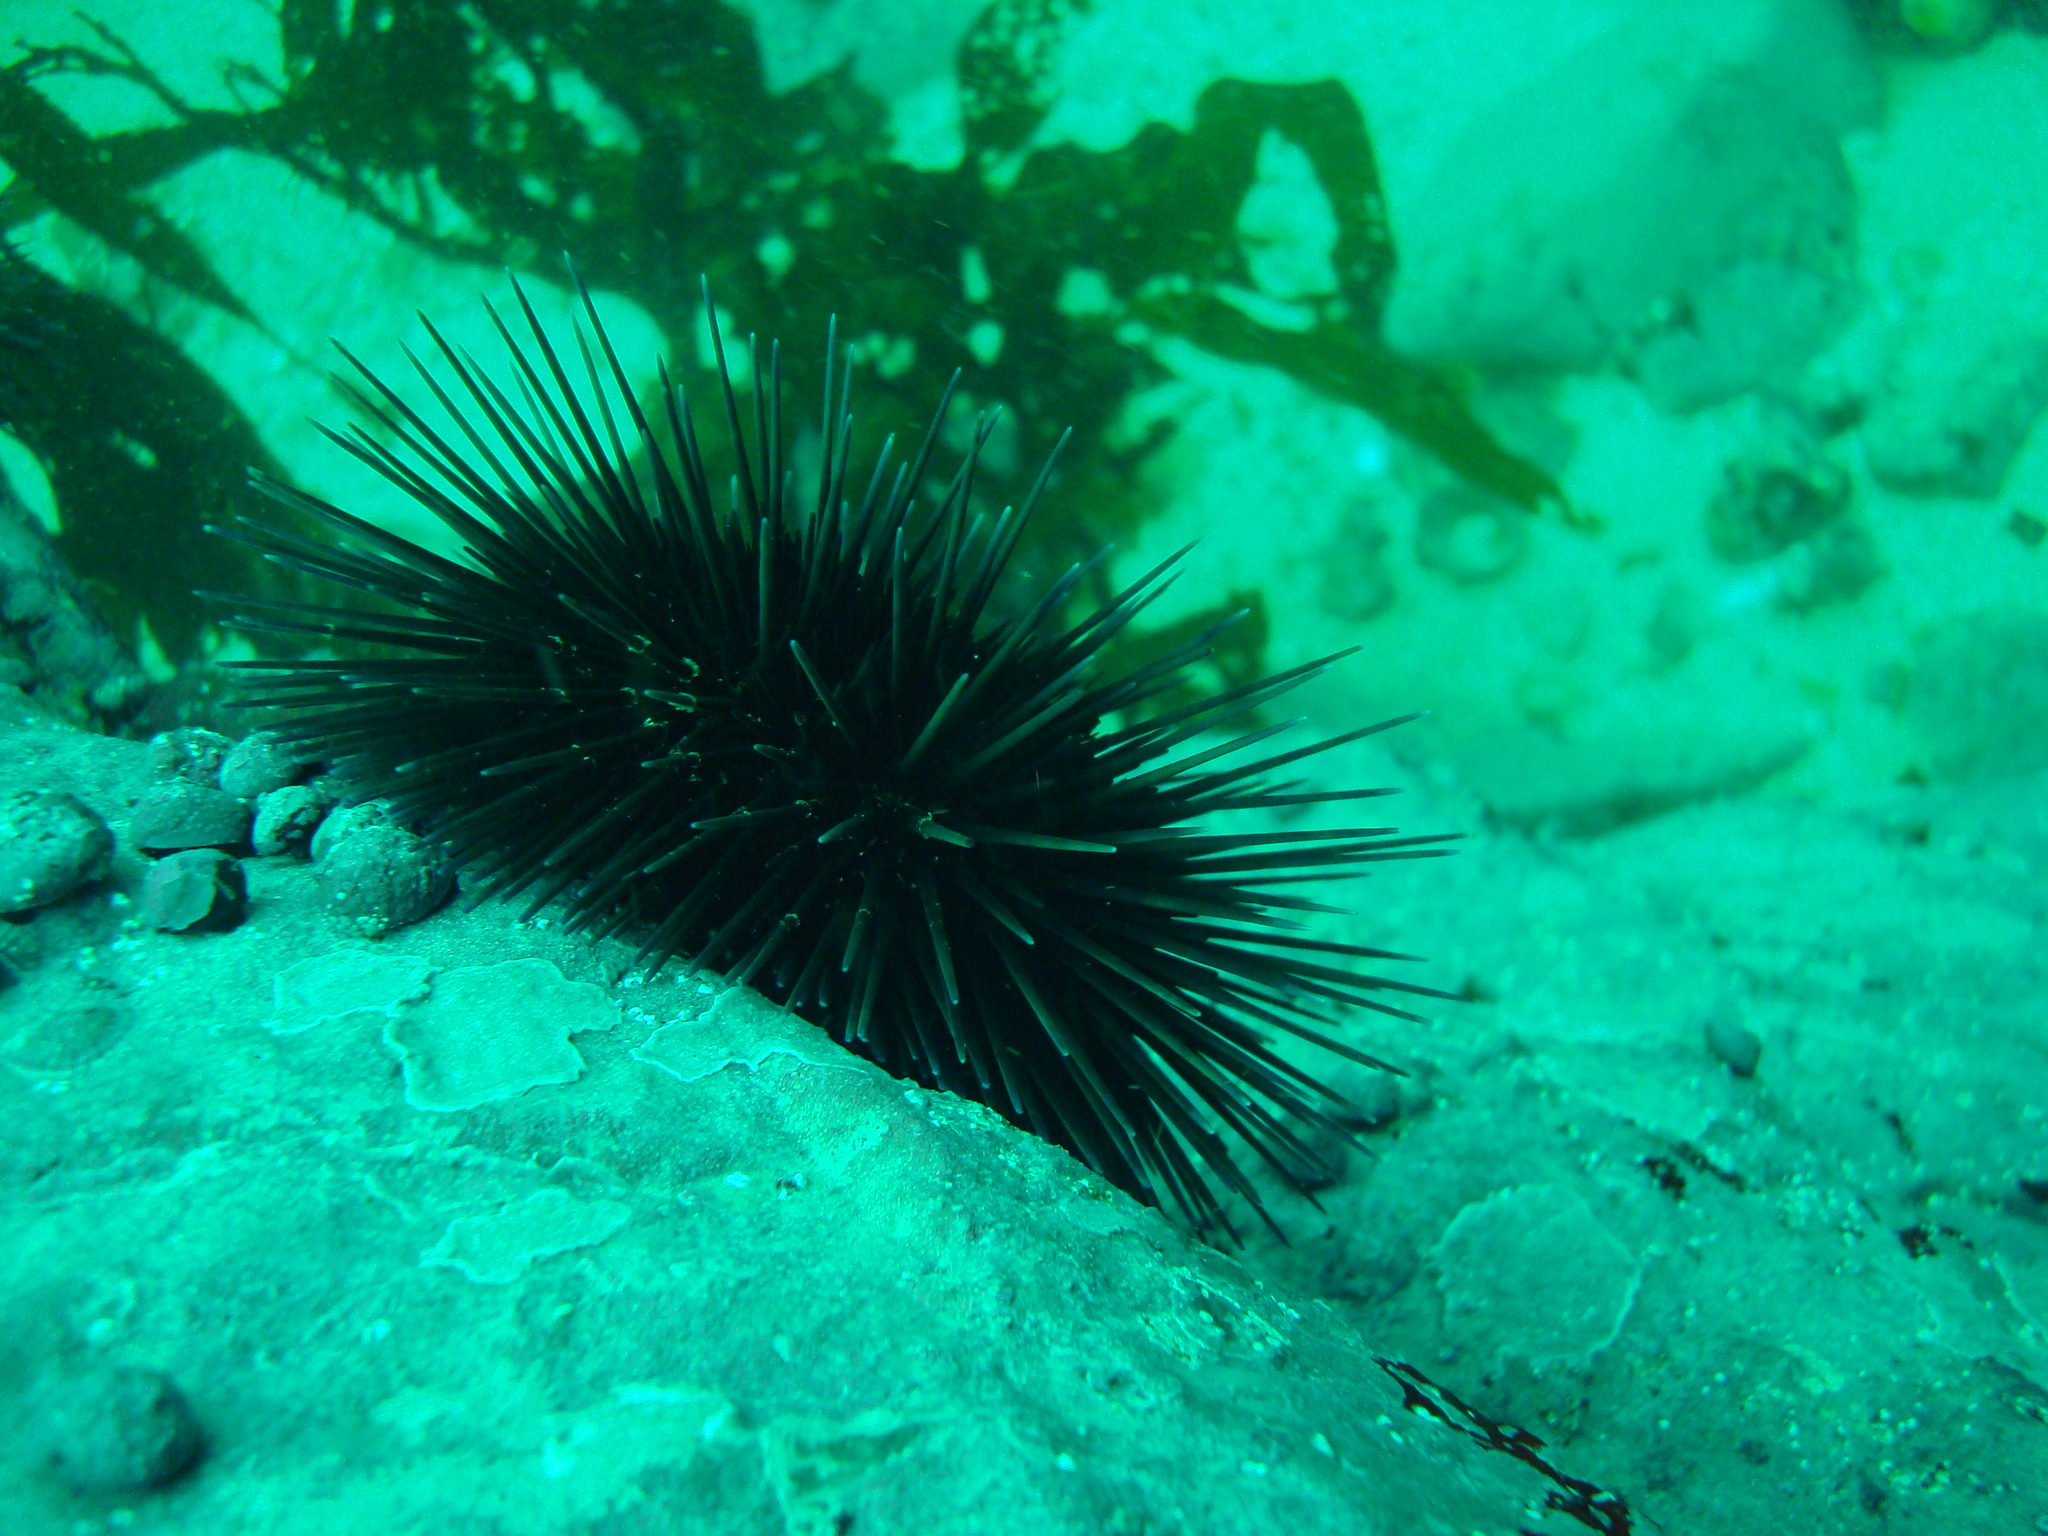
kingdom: Animalia
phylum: Echinodermata
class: Echinoidea
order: Arbacioida
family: Arbaciidae
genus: Tetrapygus
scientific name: Tetrapygus niger
